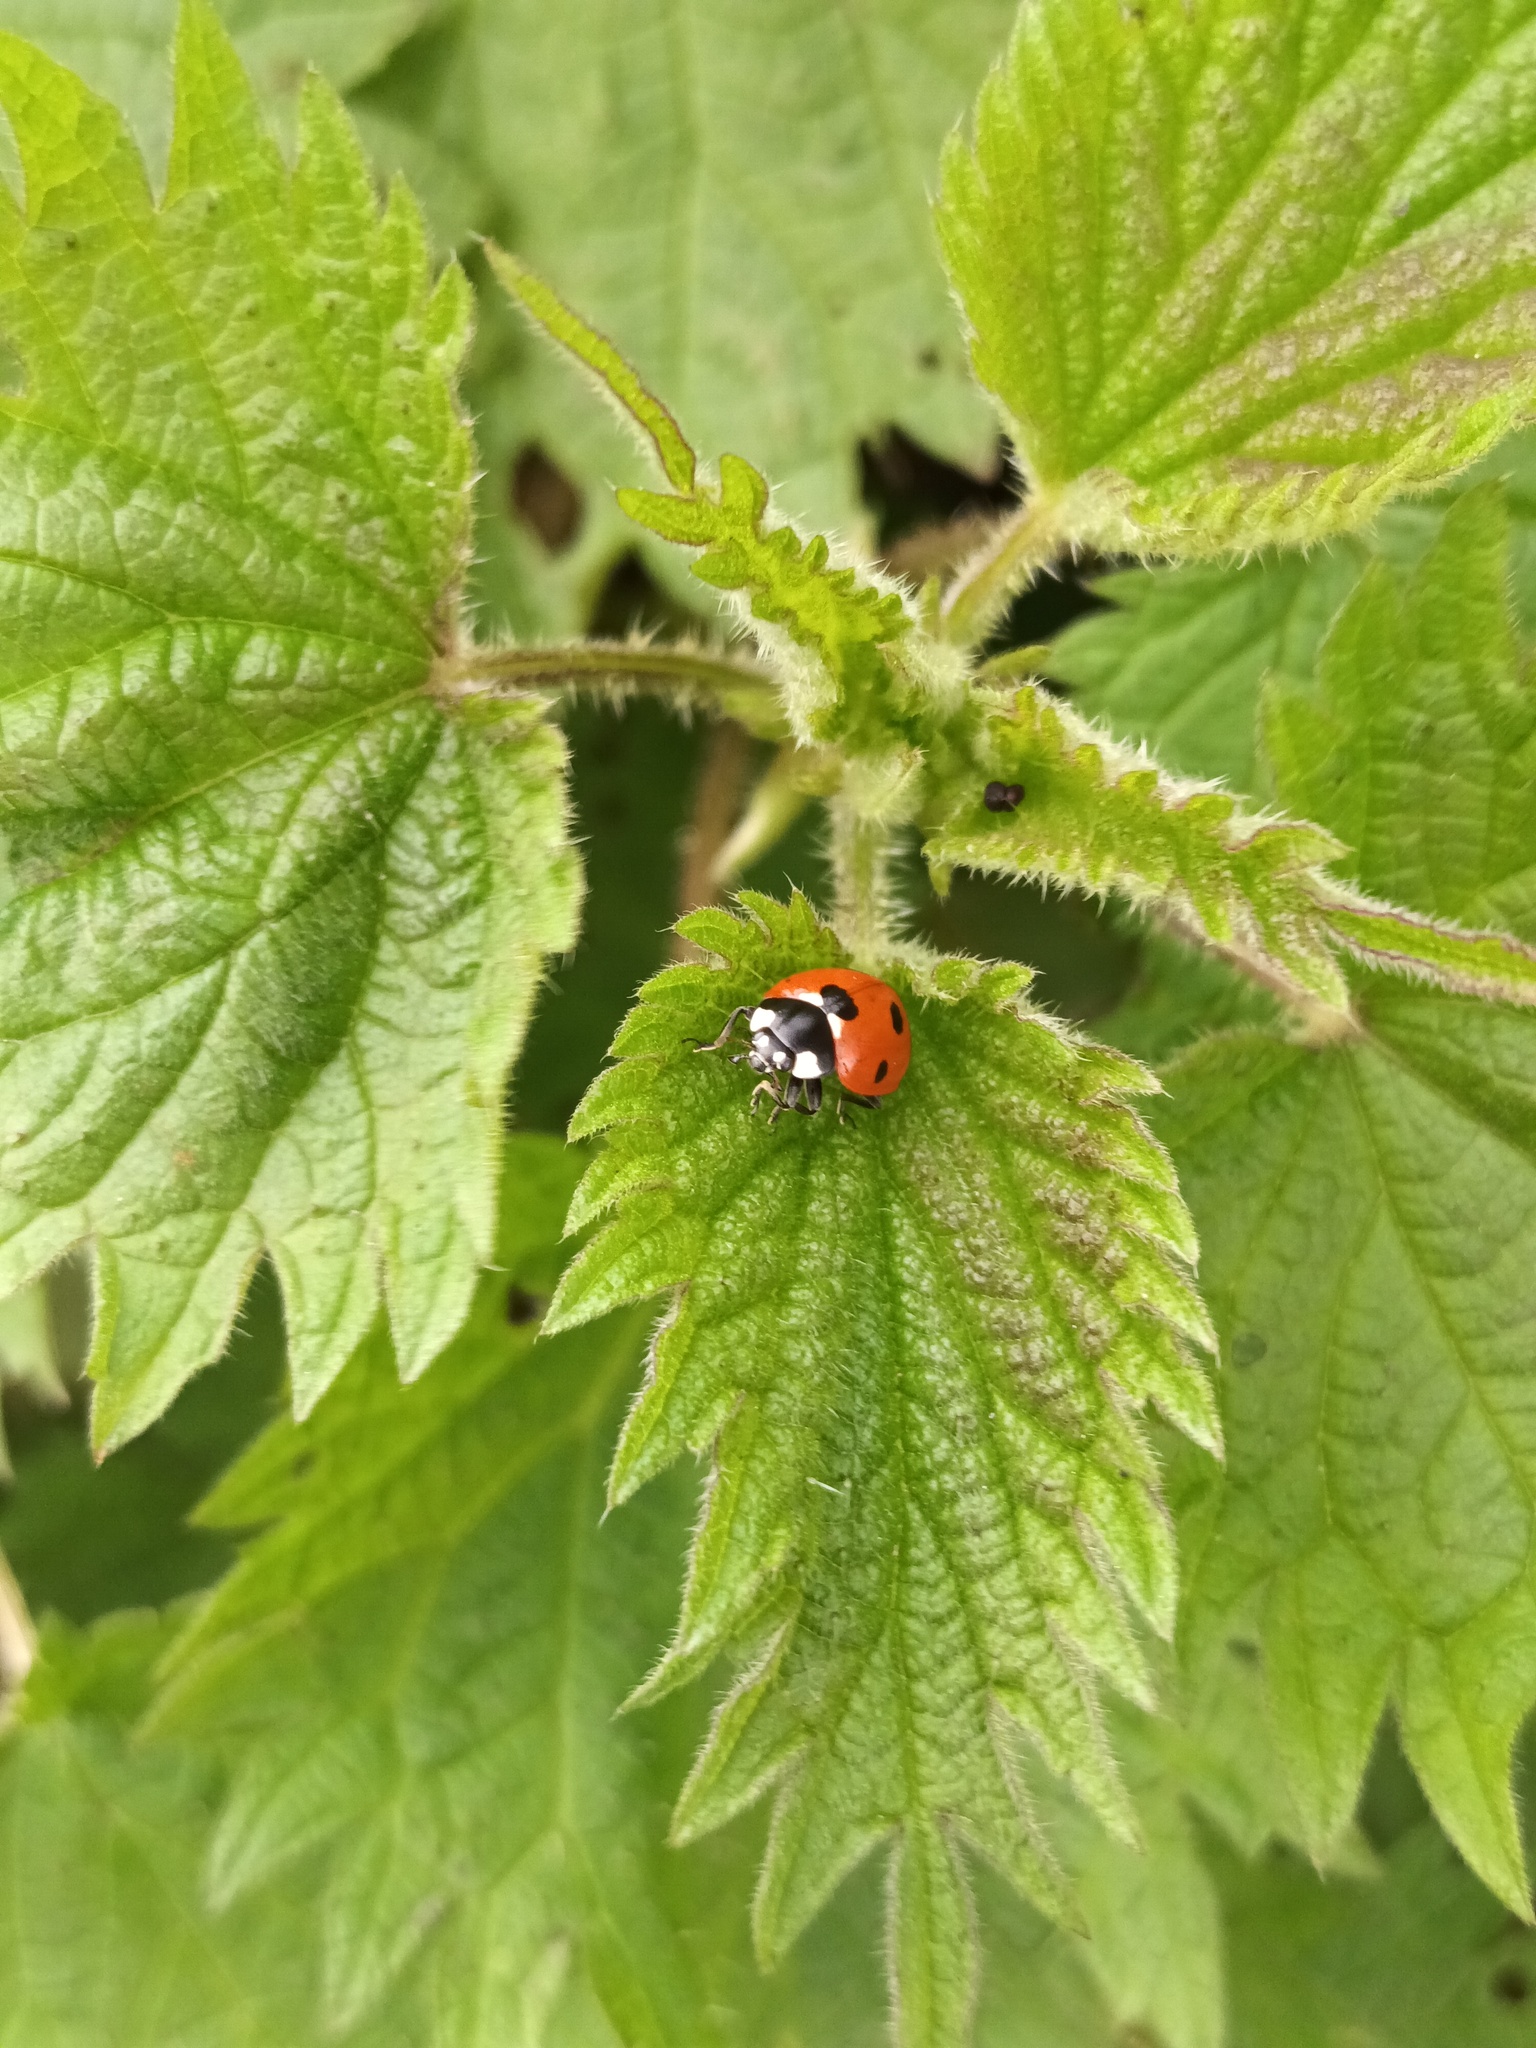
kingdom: Animalia
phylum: Arthropoda
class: Insecta
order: Coleoptera
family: Coccinellidae
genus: Coccinella
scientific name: Coccinella septempunctata
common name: Sevenspotted lady beetle
